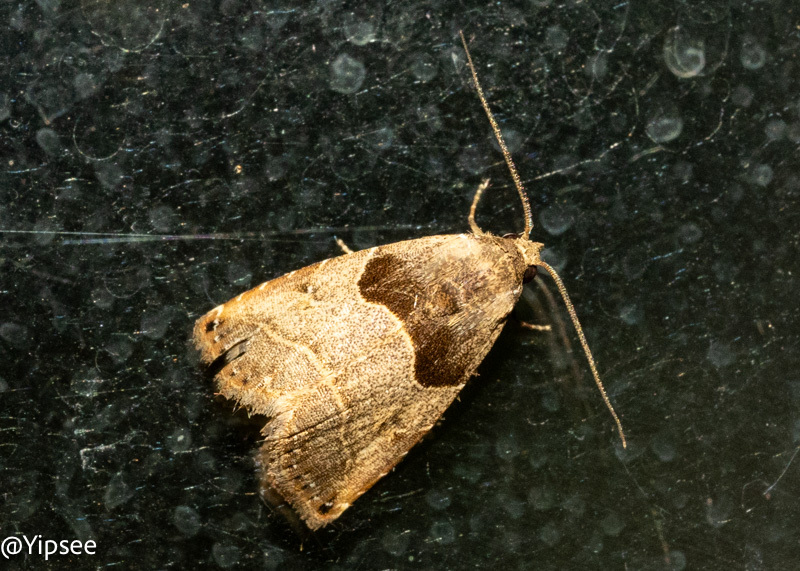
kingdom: Animalia
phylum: Arthropoda
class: Insecta
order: Lepidoptera
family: Erebidae
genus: Rivula
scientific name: Rivula basalis
